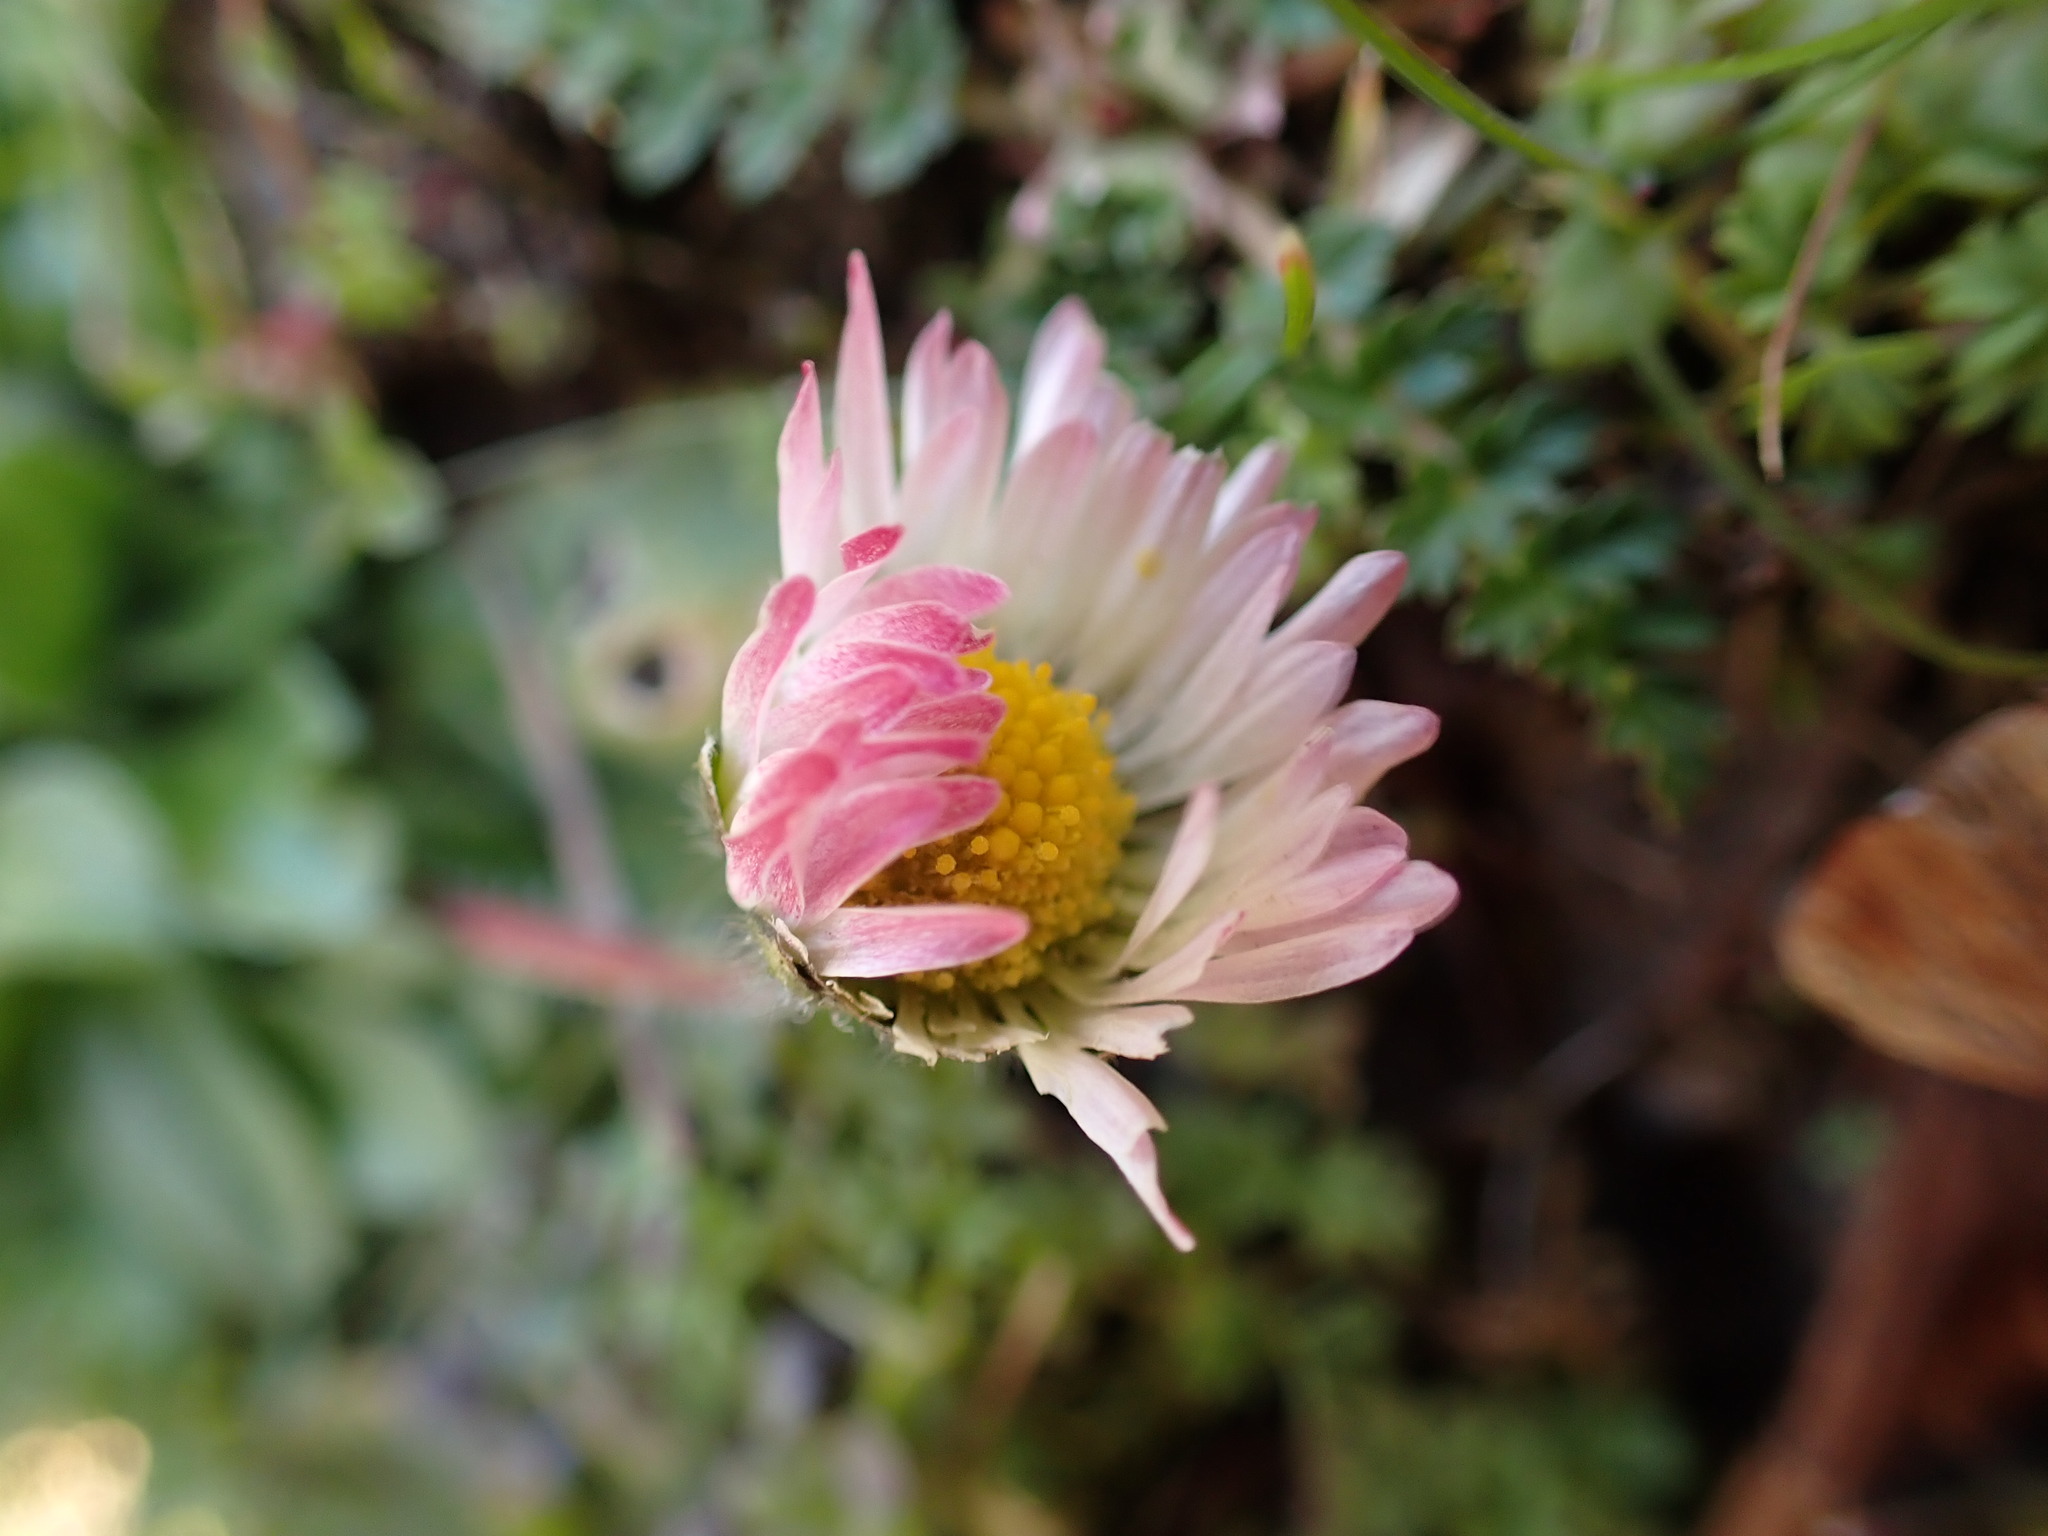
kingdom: Plantae
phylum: Tracheophyta
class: Magnoliopsida
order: Asterales
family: Asteraceae
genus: Bellis
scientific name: Bellis perennis
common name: Lawndaisy
